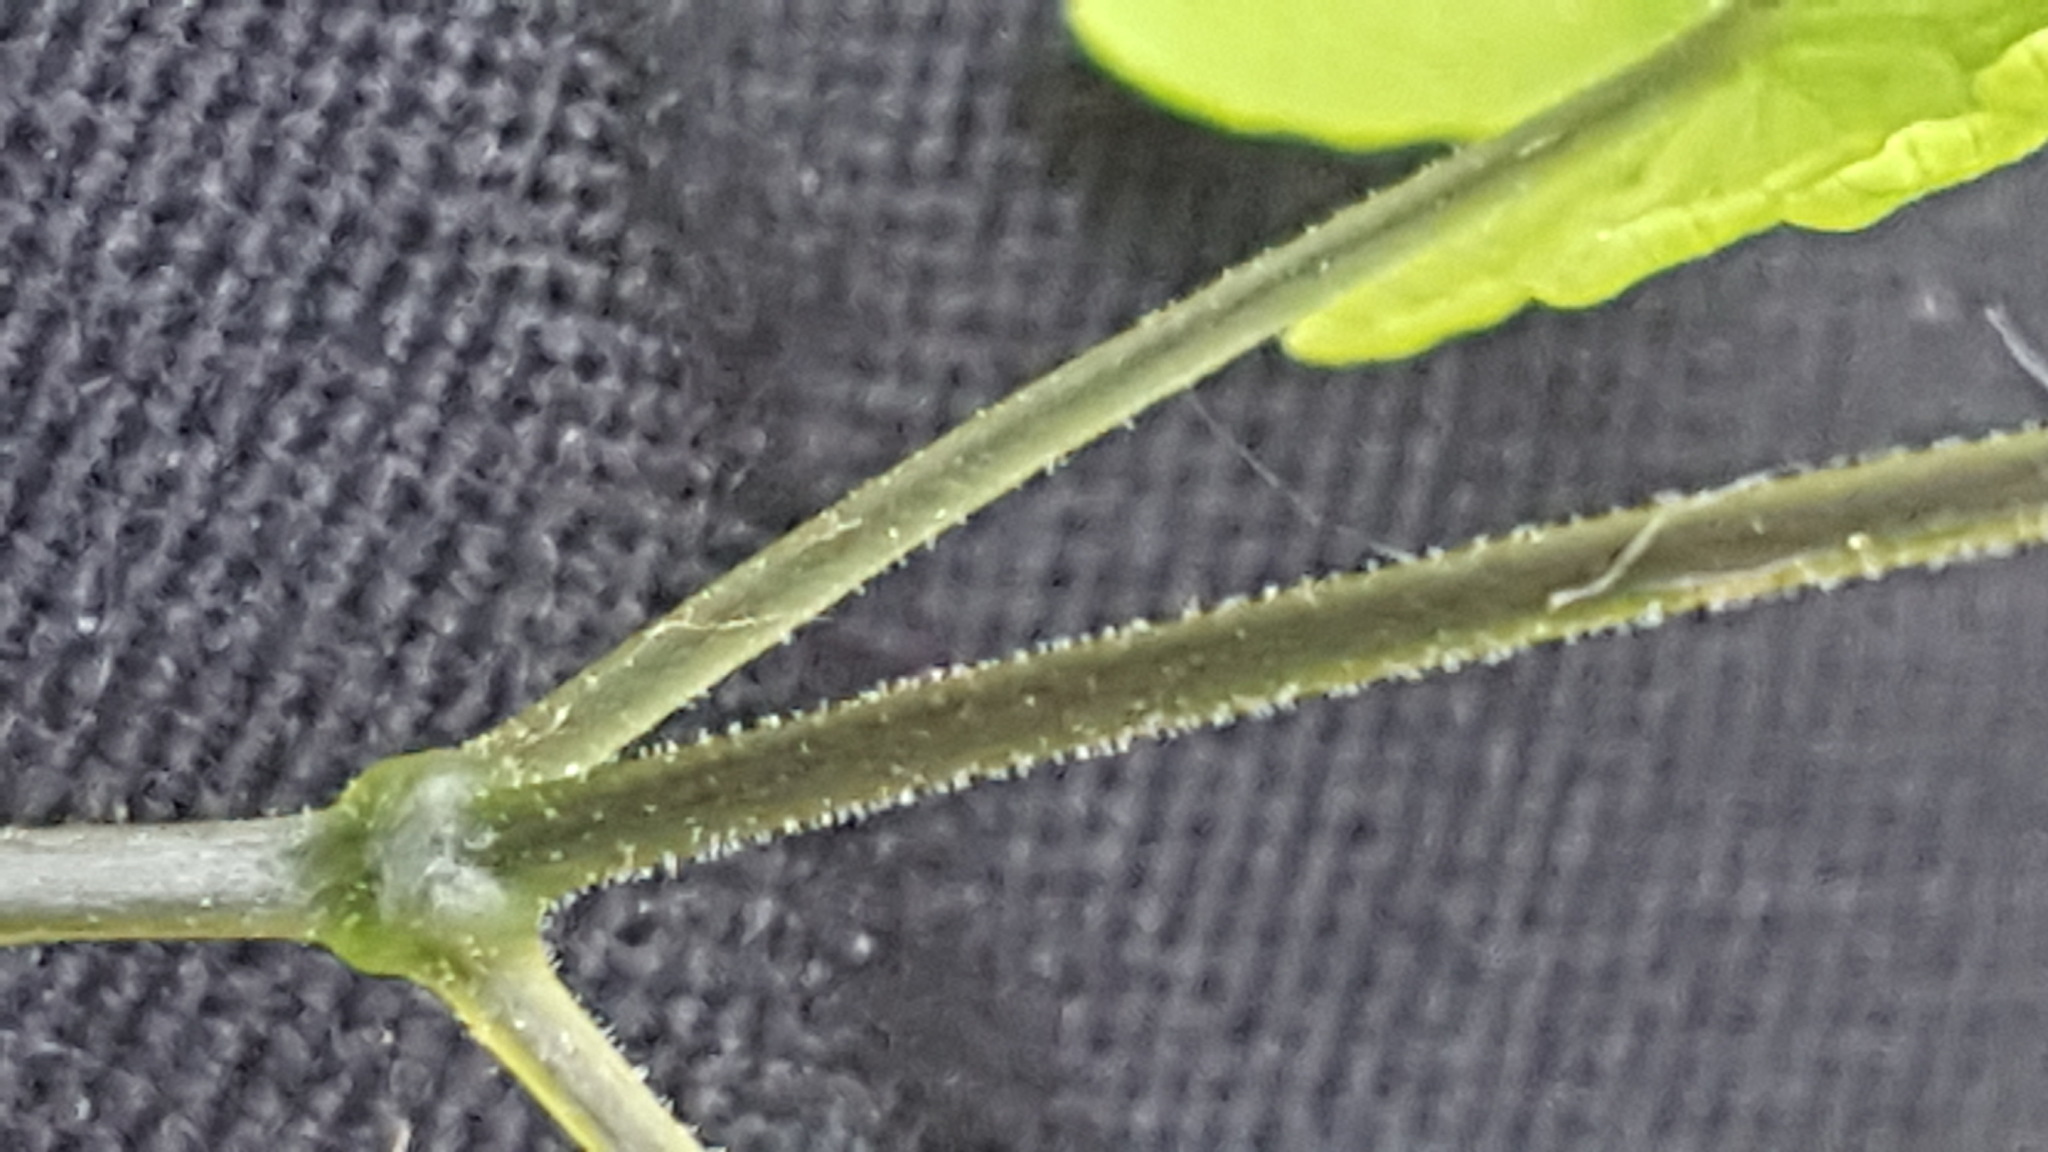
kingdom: Plantae
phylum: Tracheophyta
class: Polypodiopsida
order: Polypodiales
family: Cystopteridaceae
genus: Gymnocarpium
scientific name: Gymnocarpium jessoense
